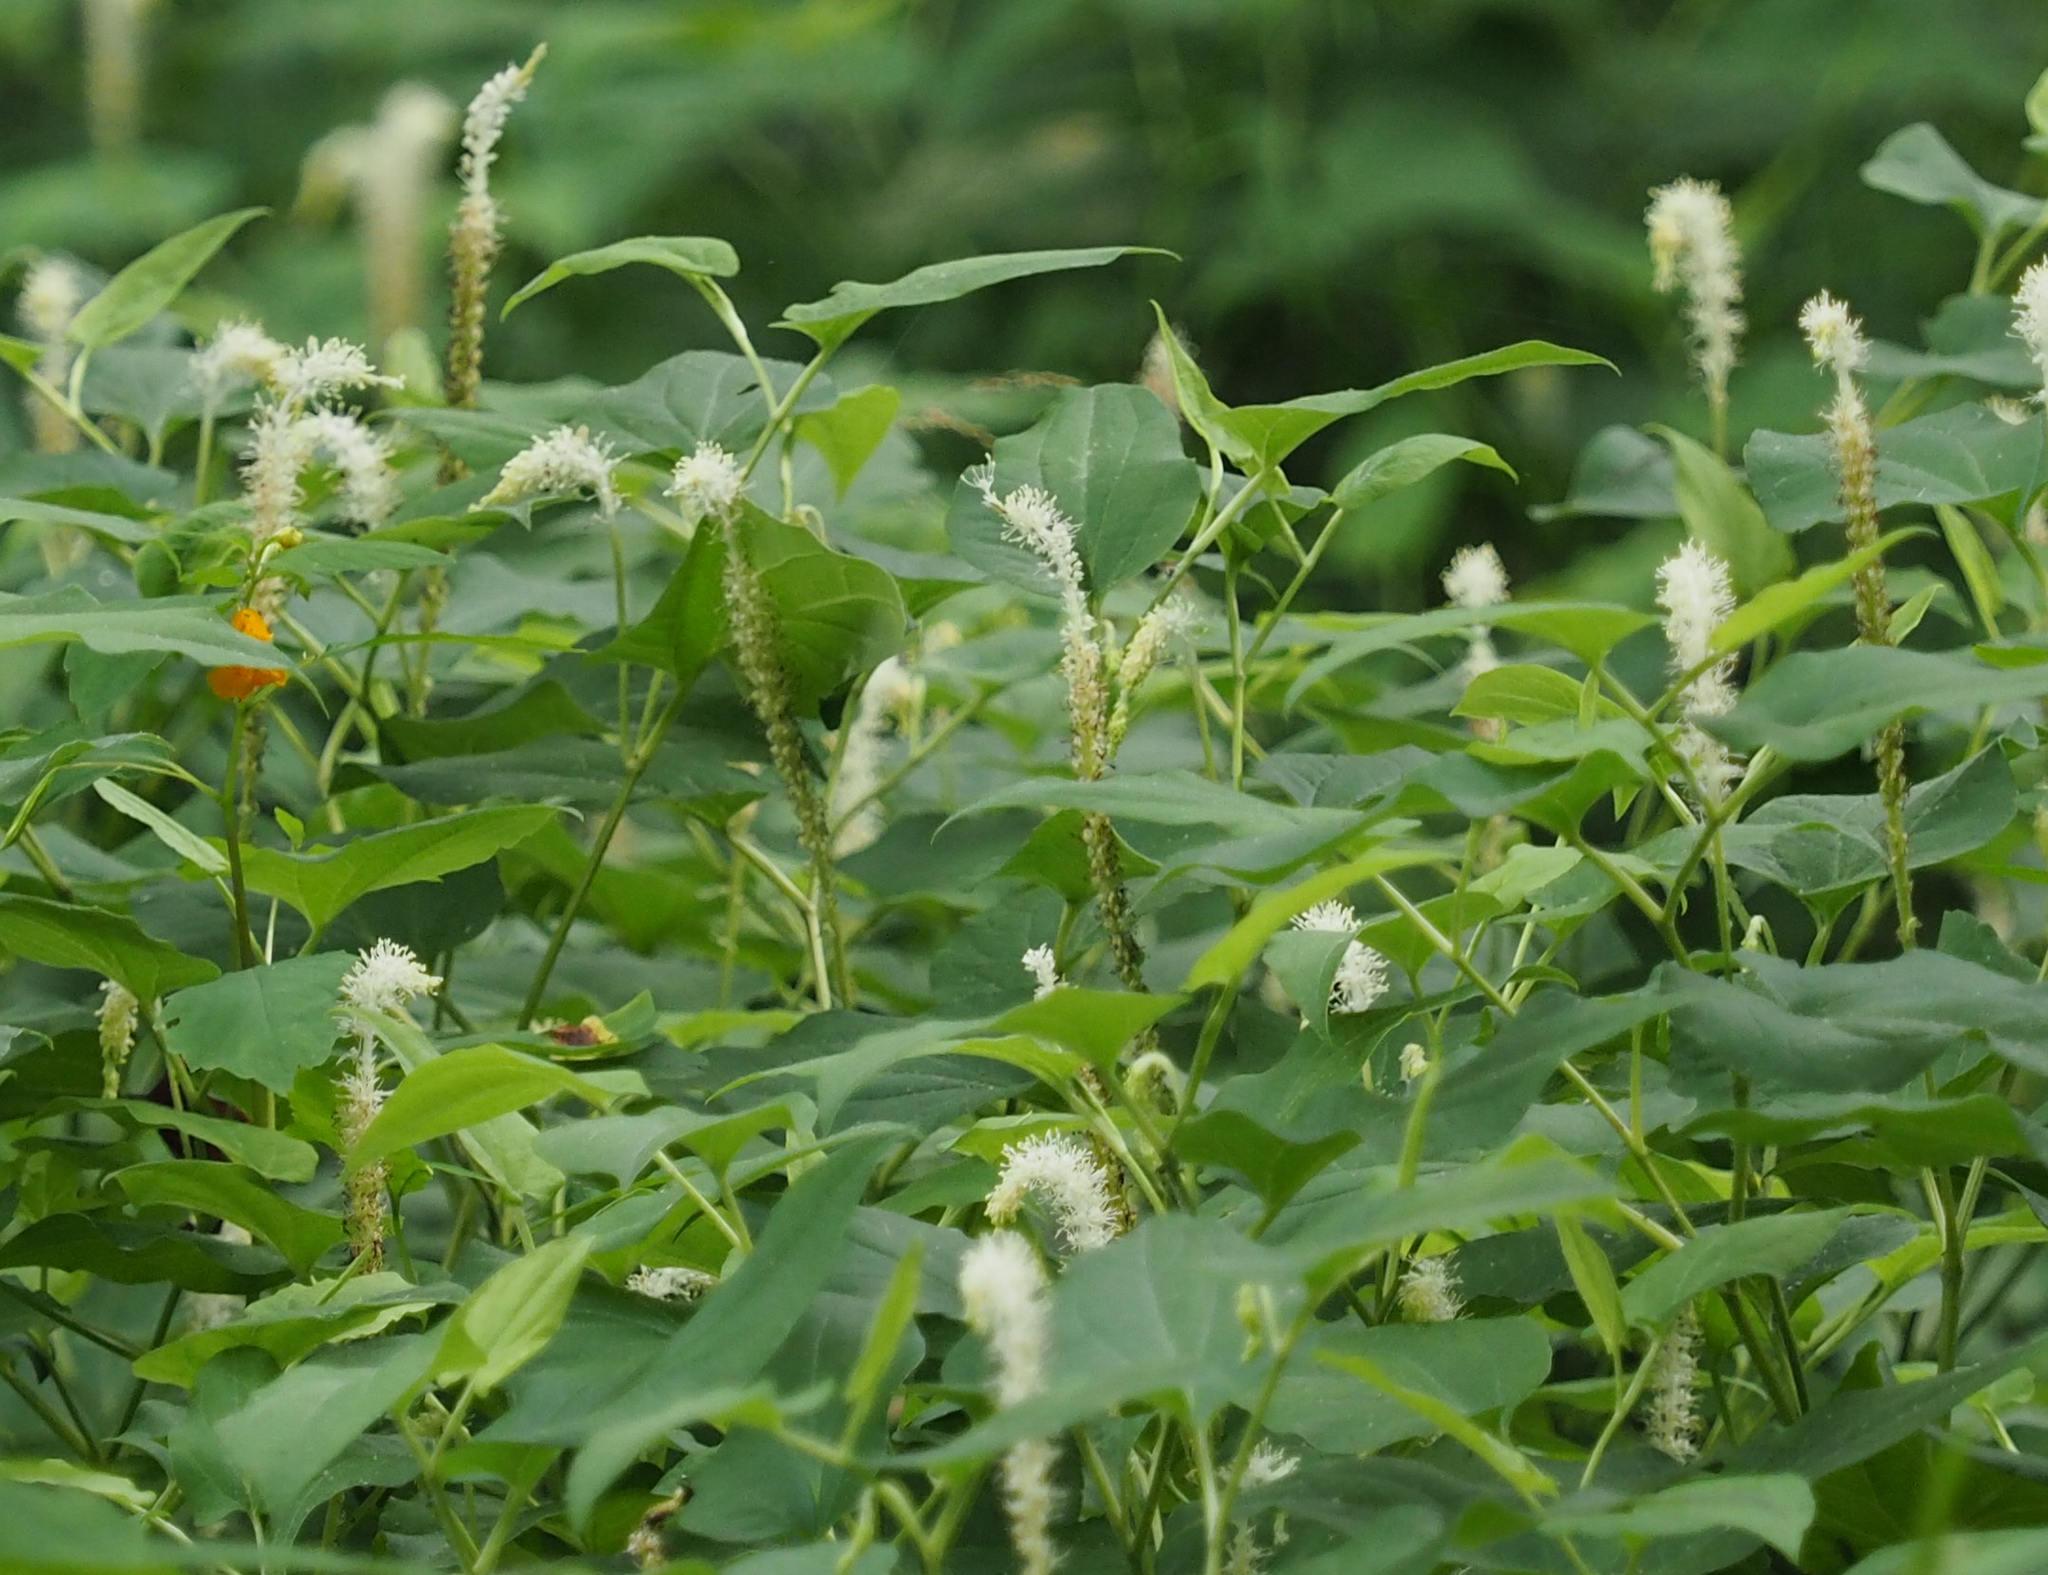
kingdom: Plantae
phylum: Tracheophyta
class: Magnoliopsida
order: Piperales
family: Saururaceae
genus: Saururus
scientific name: Saururus cernuus
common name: Lizard's-tail
